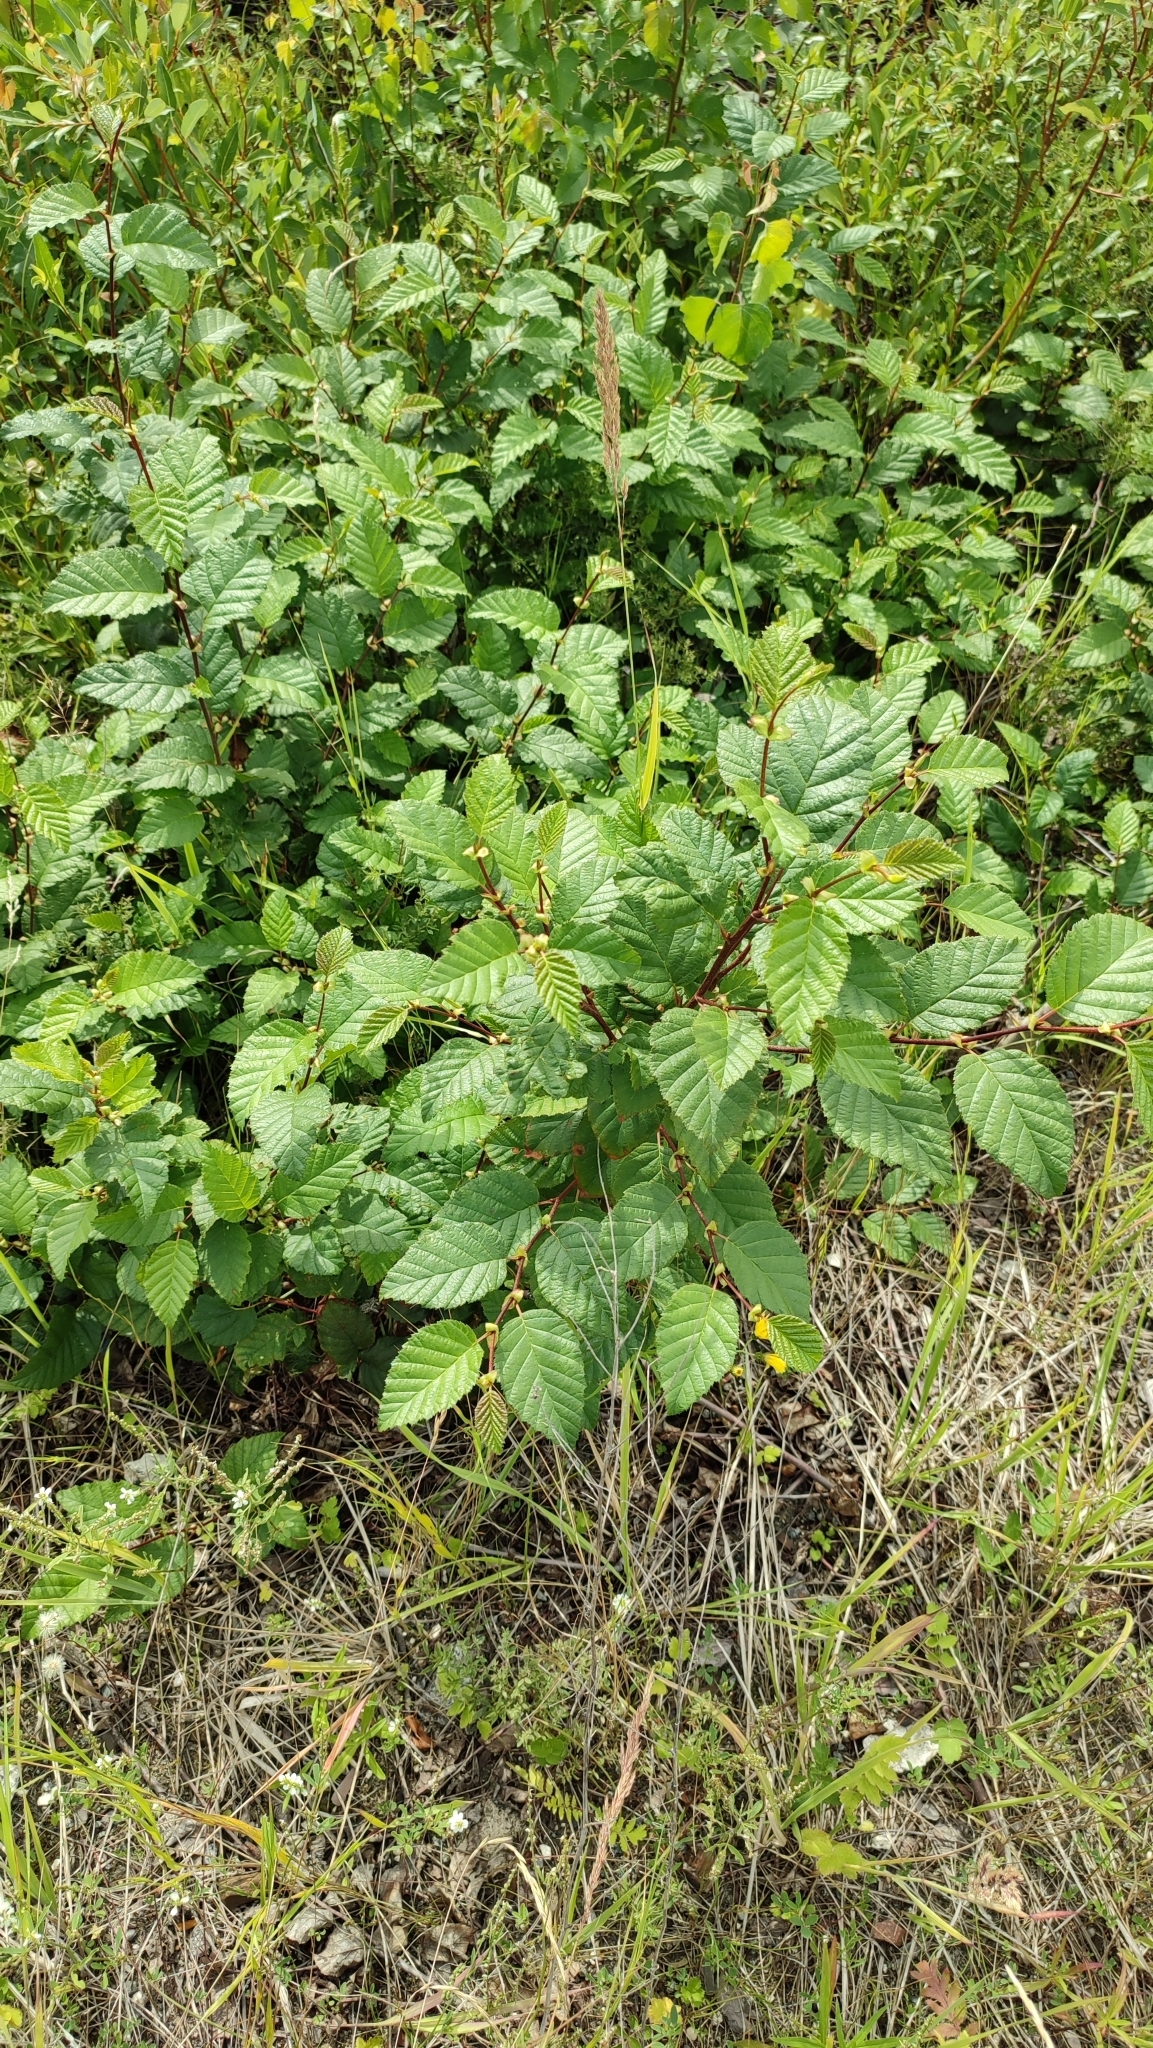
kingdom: Plantae
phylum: Tracheophyta
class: Magnoliopsida
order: Fagales
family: Betulaceae
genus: Alnus
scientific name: Alnus alnobetula
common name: Green alder
